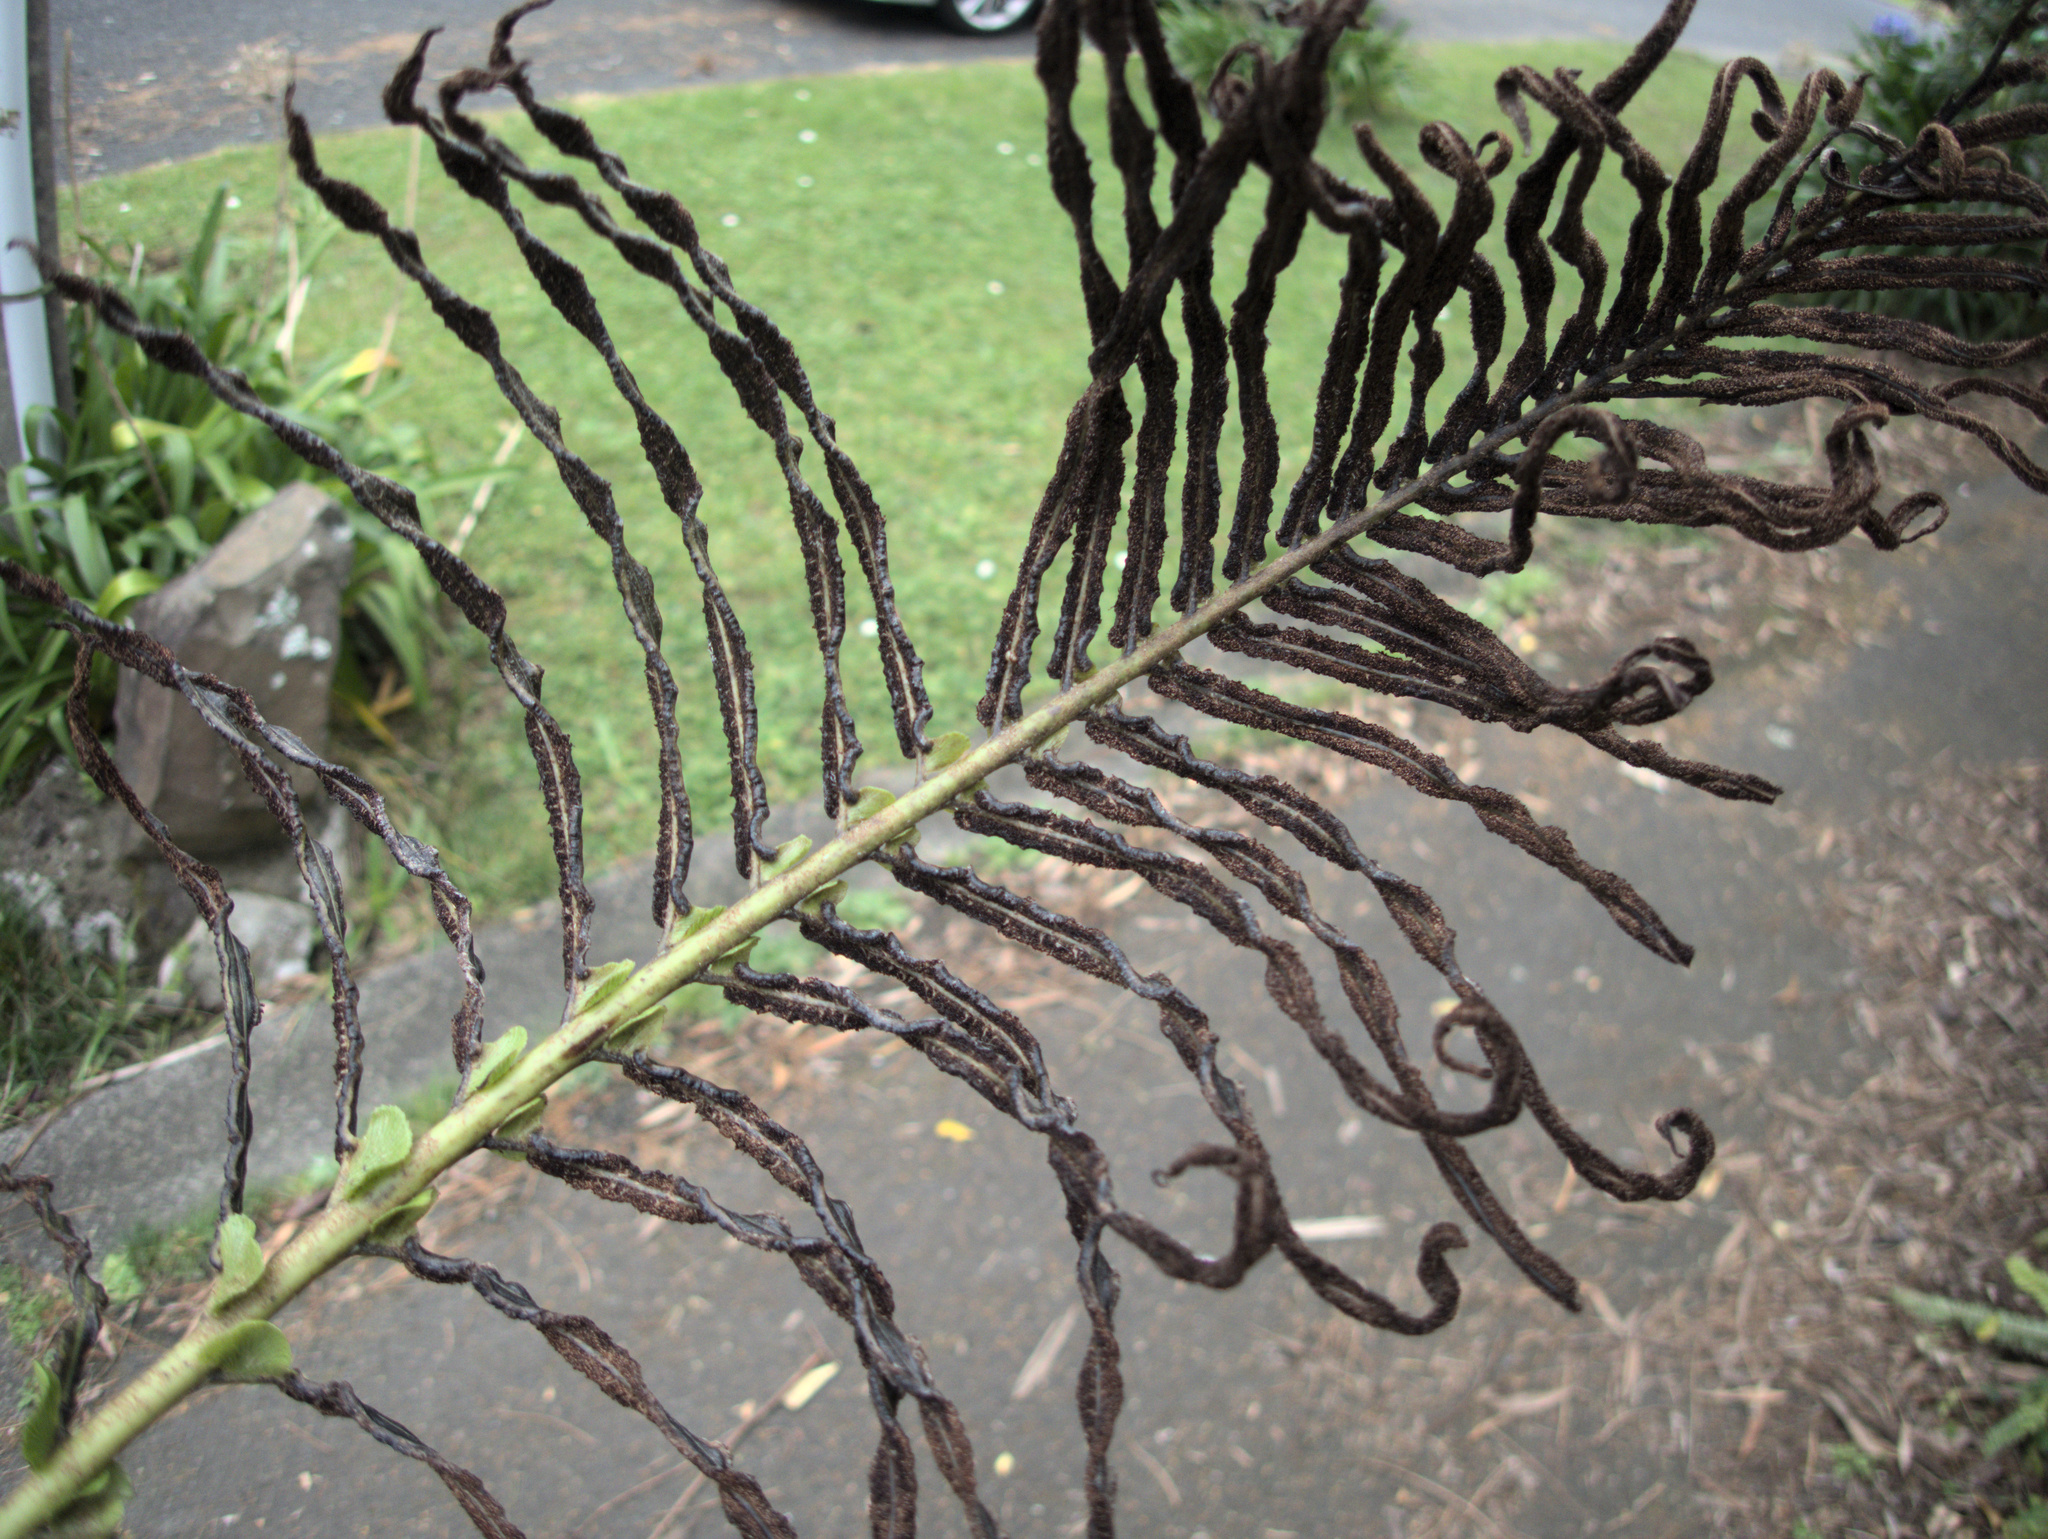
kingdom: Plantae
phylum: Tracheophyta
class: Polypodiopsida
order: Polypodiales
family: Blechnaceae
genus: Parablechnum
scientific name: Parablechnum novae-zelandiae
